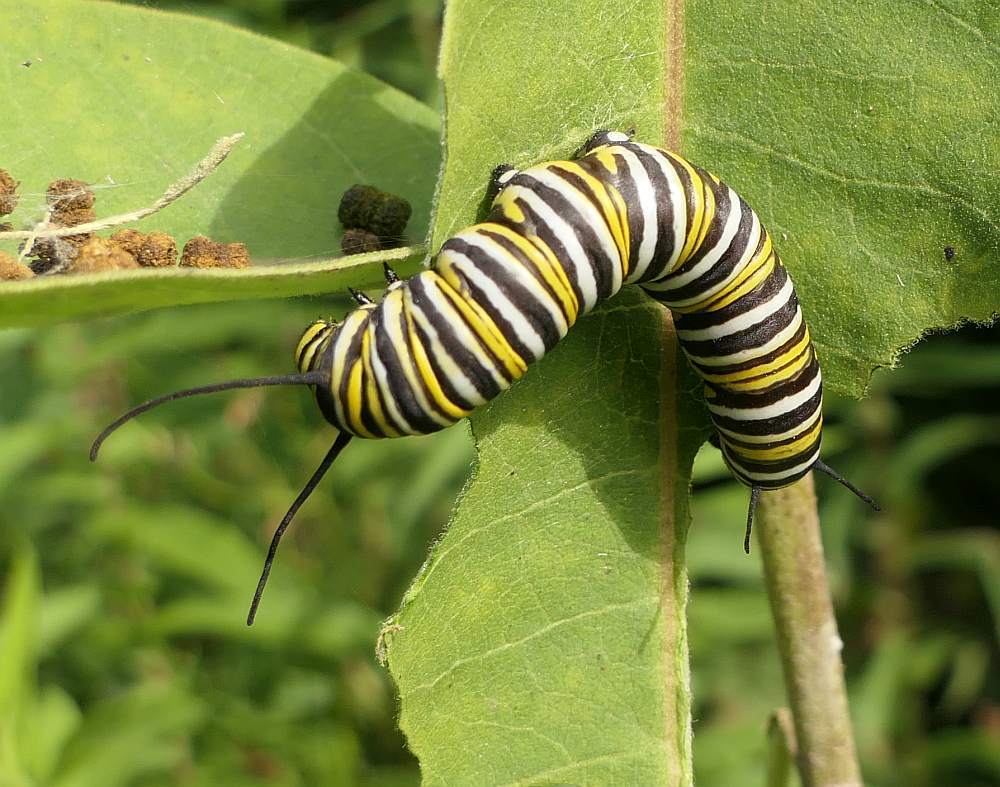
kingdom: Animalia
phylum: Arthropoda
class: Insecta
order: Lepidoptera
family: Nymphalidae
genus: Danaus
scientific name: Danaus plexippus
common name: Monarch
